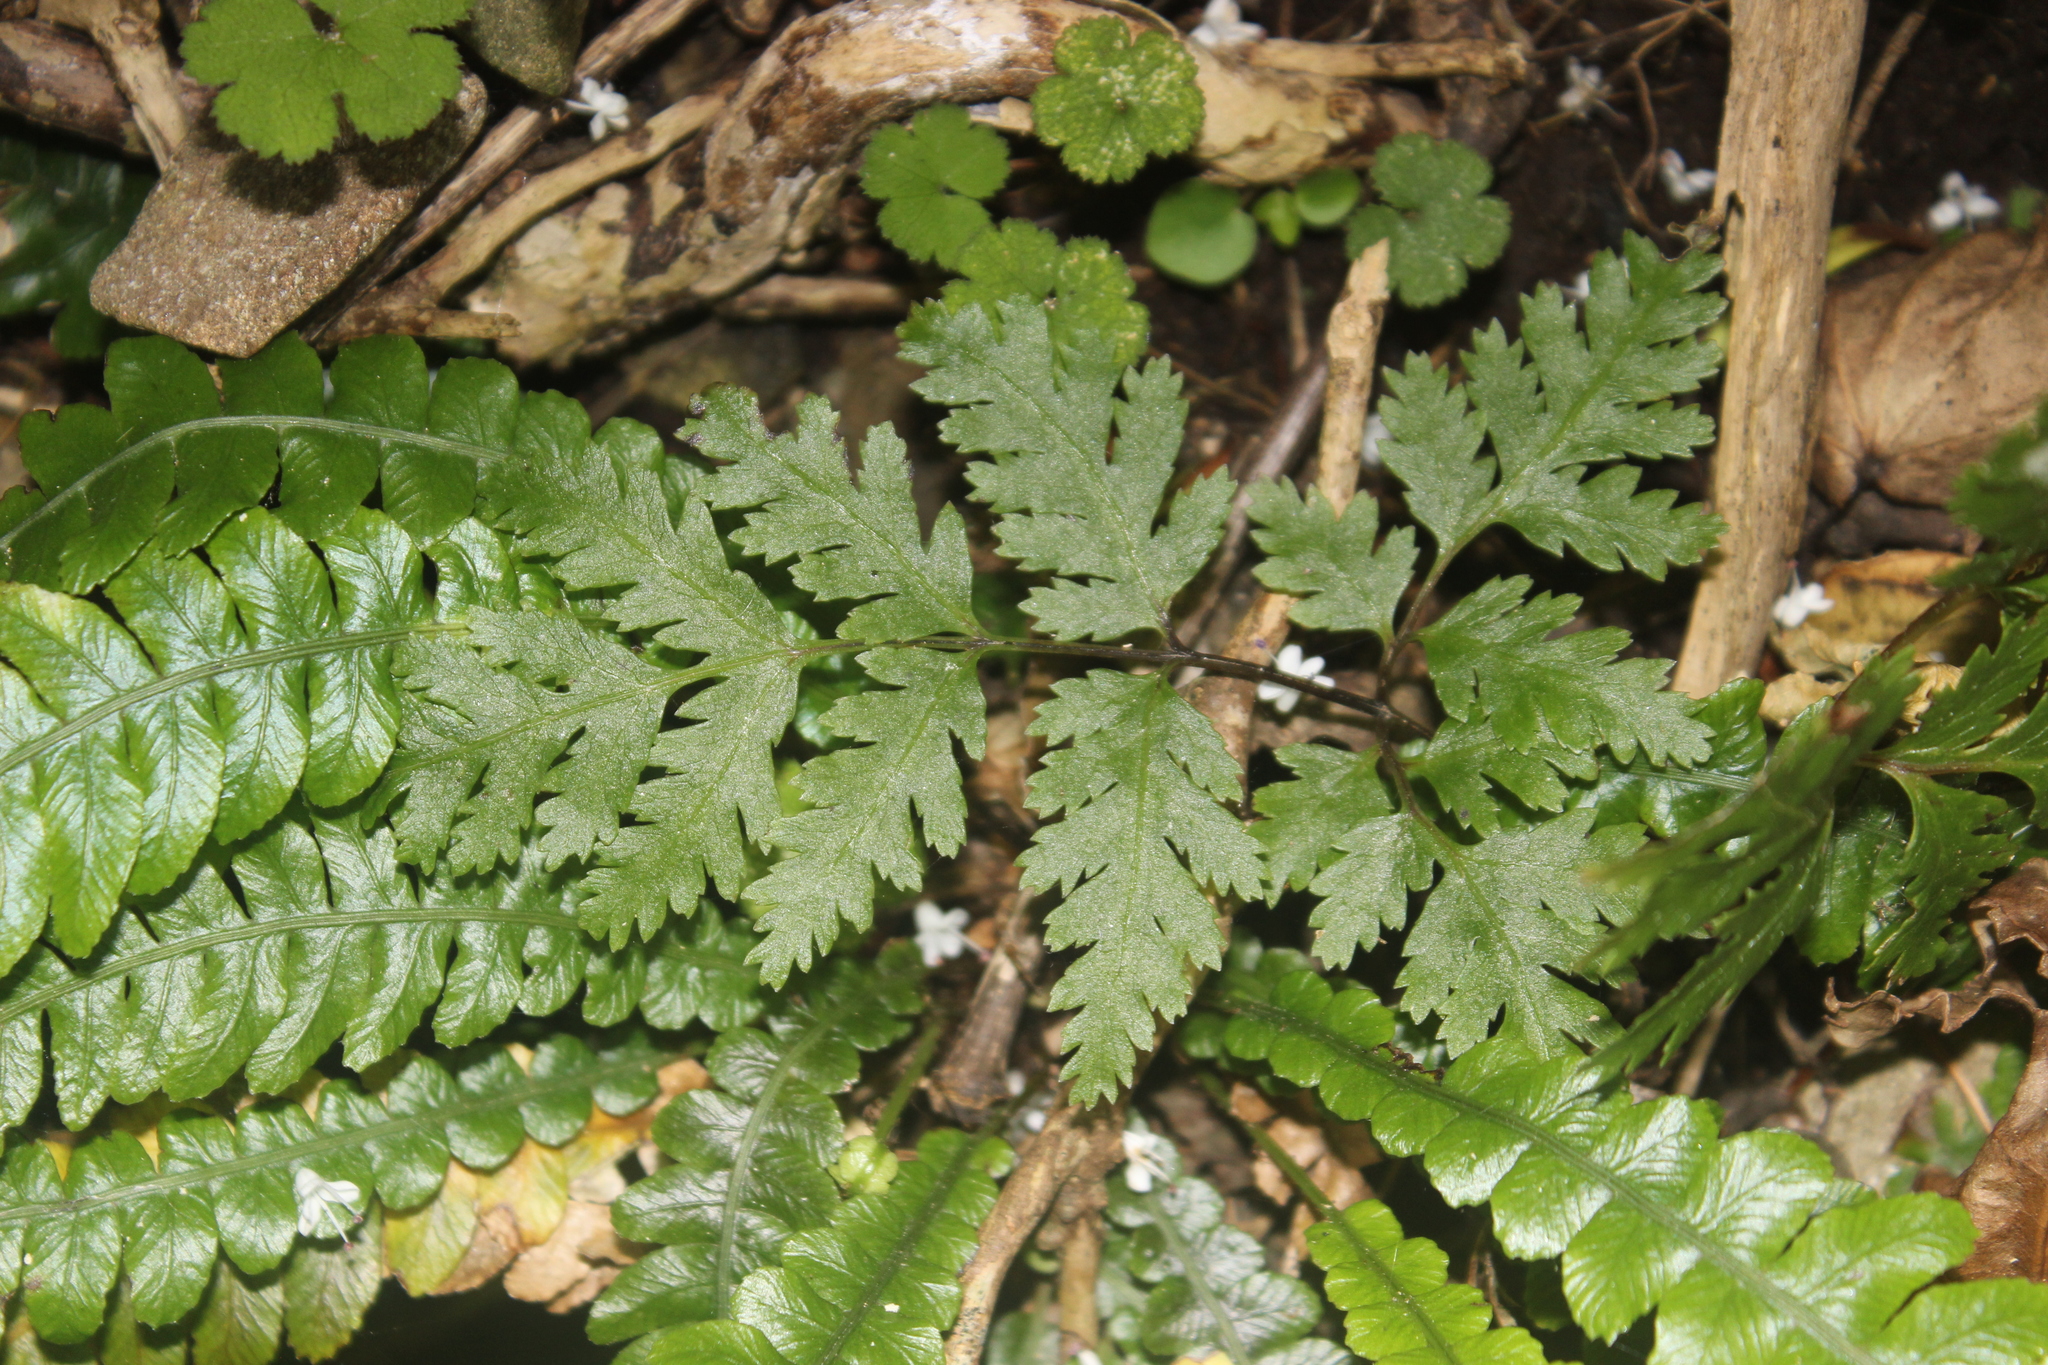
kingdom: Plantae
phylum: Tracheophyta
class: Polypodiopsida
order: Polypodiales
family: Pteridaceae
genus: Pteris
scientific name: Pteris macilenta
